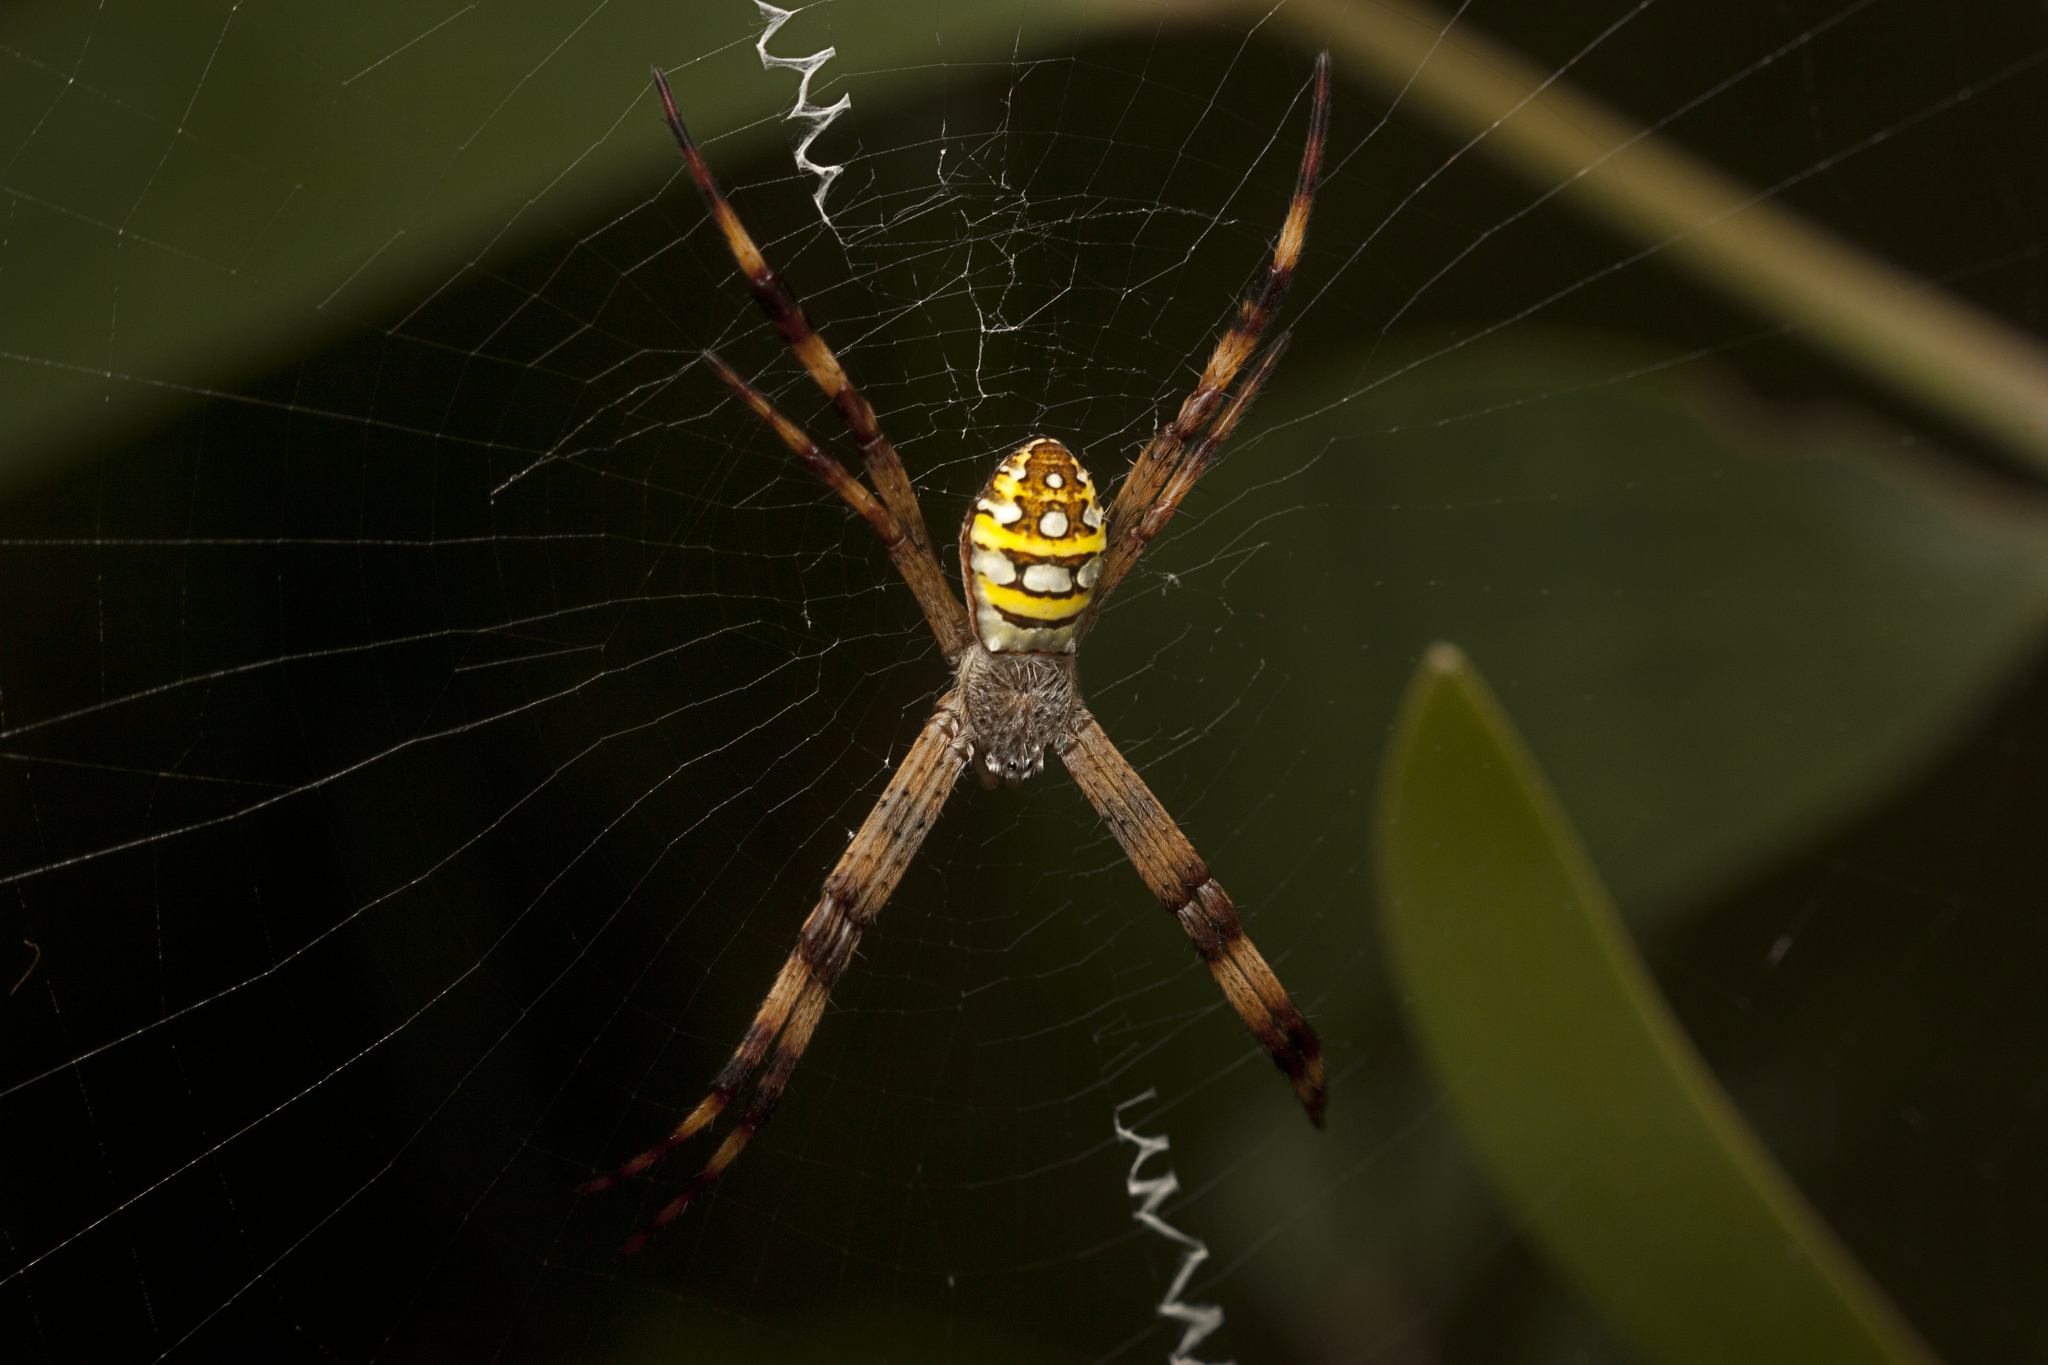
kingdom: Animalia
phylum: Arthropoda
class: Arachnida
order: Araneae
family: Araneidae
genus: Argiope
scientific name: Argiope picta
